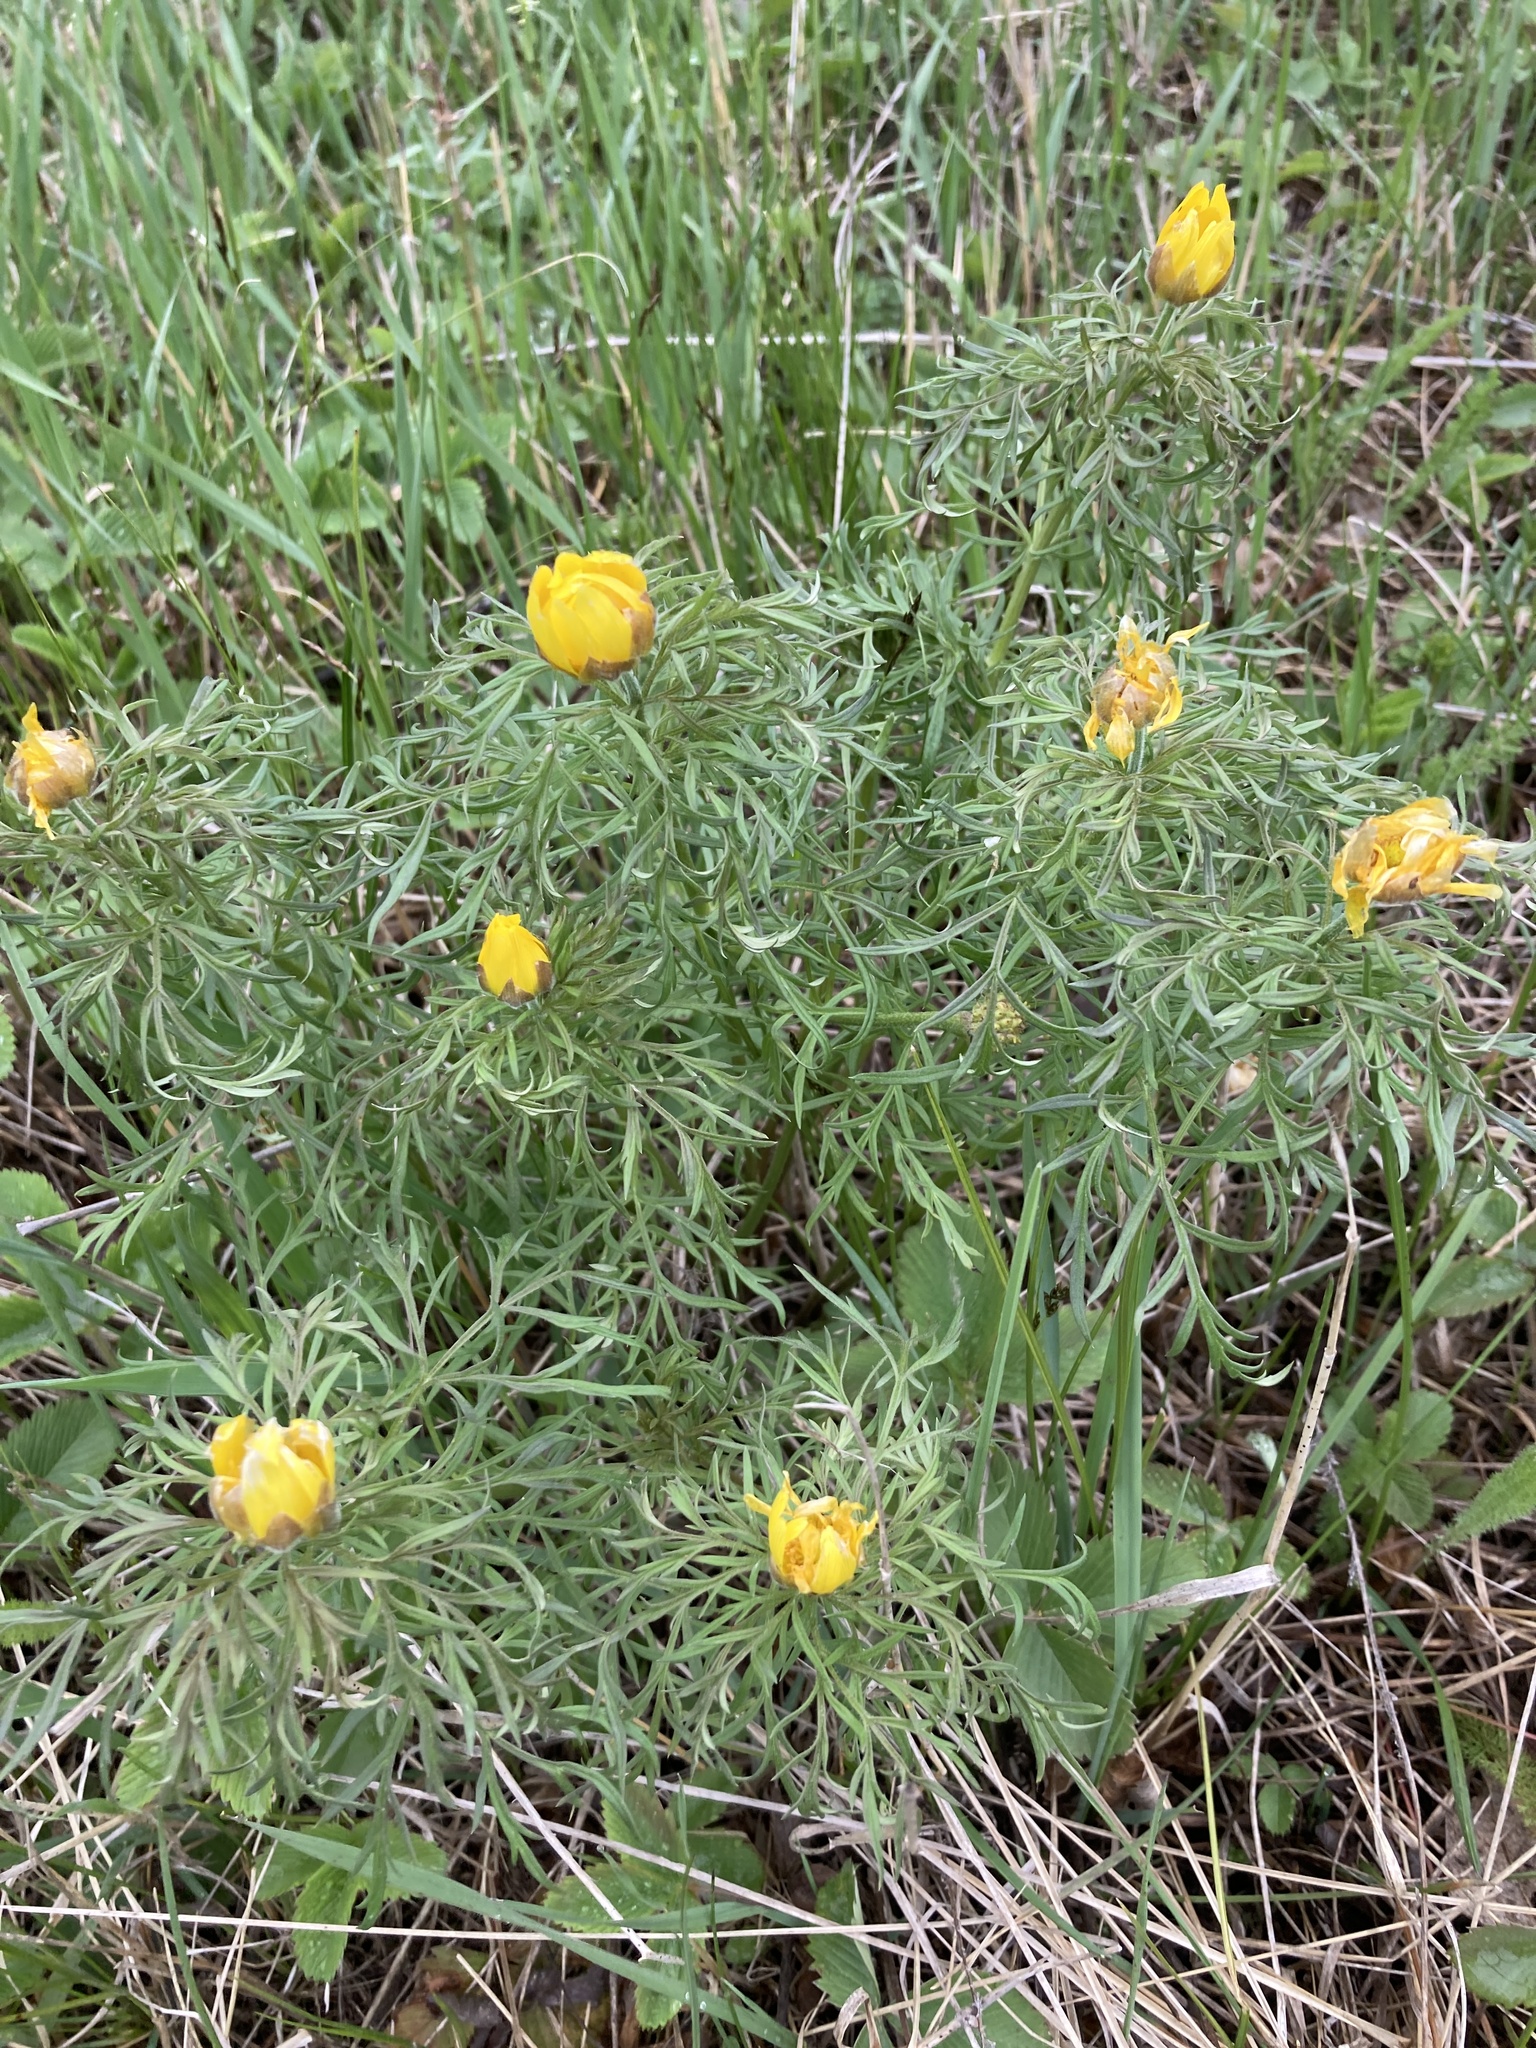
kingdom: Plantae
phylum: Tracheophyta
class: Magnoliopsida
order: Ranunculales
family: Ranunculaceae
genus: Adonis
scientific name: Adonis volgensis
